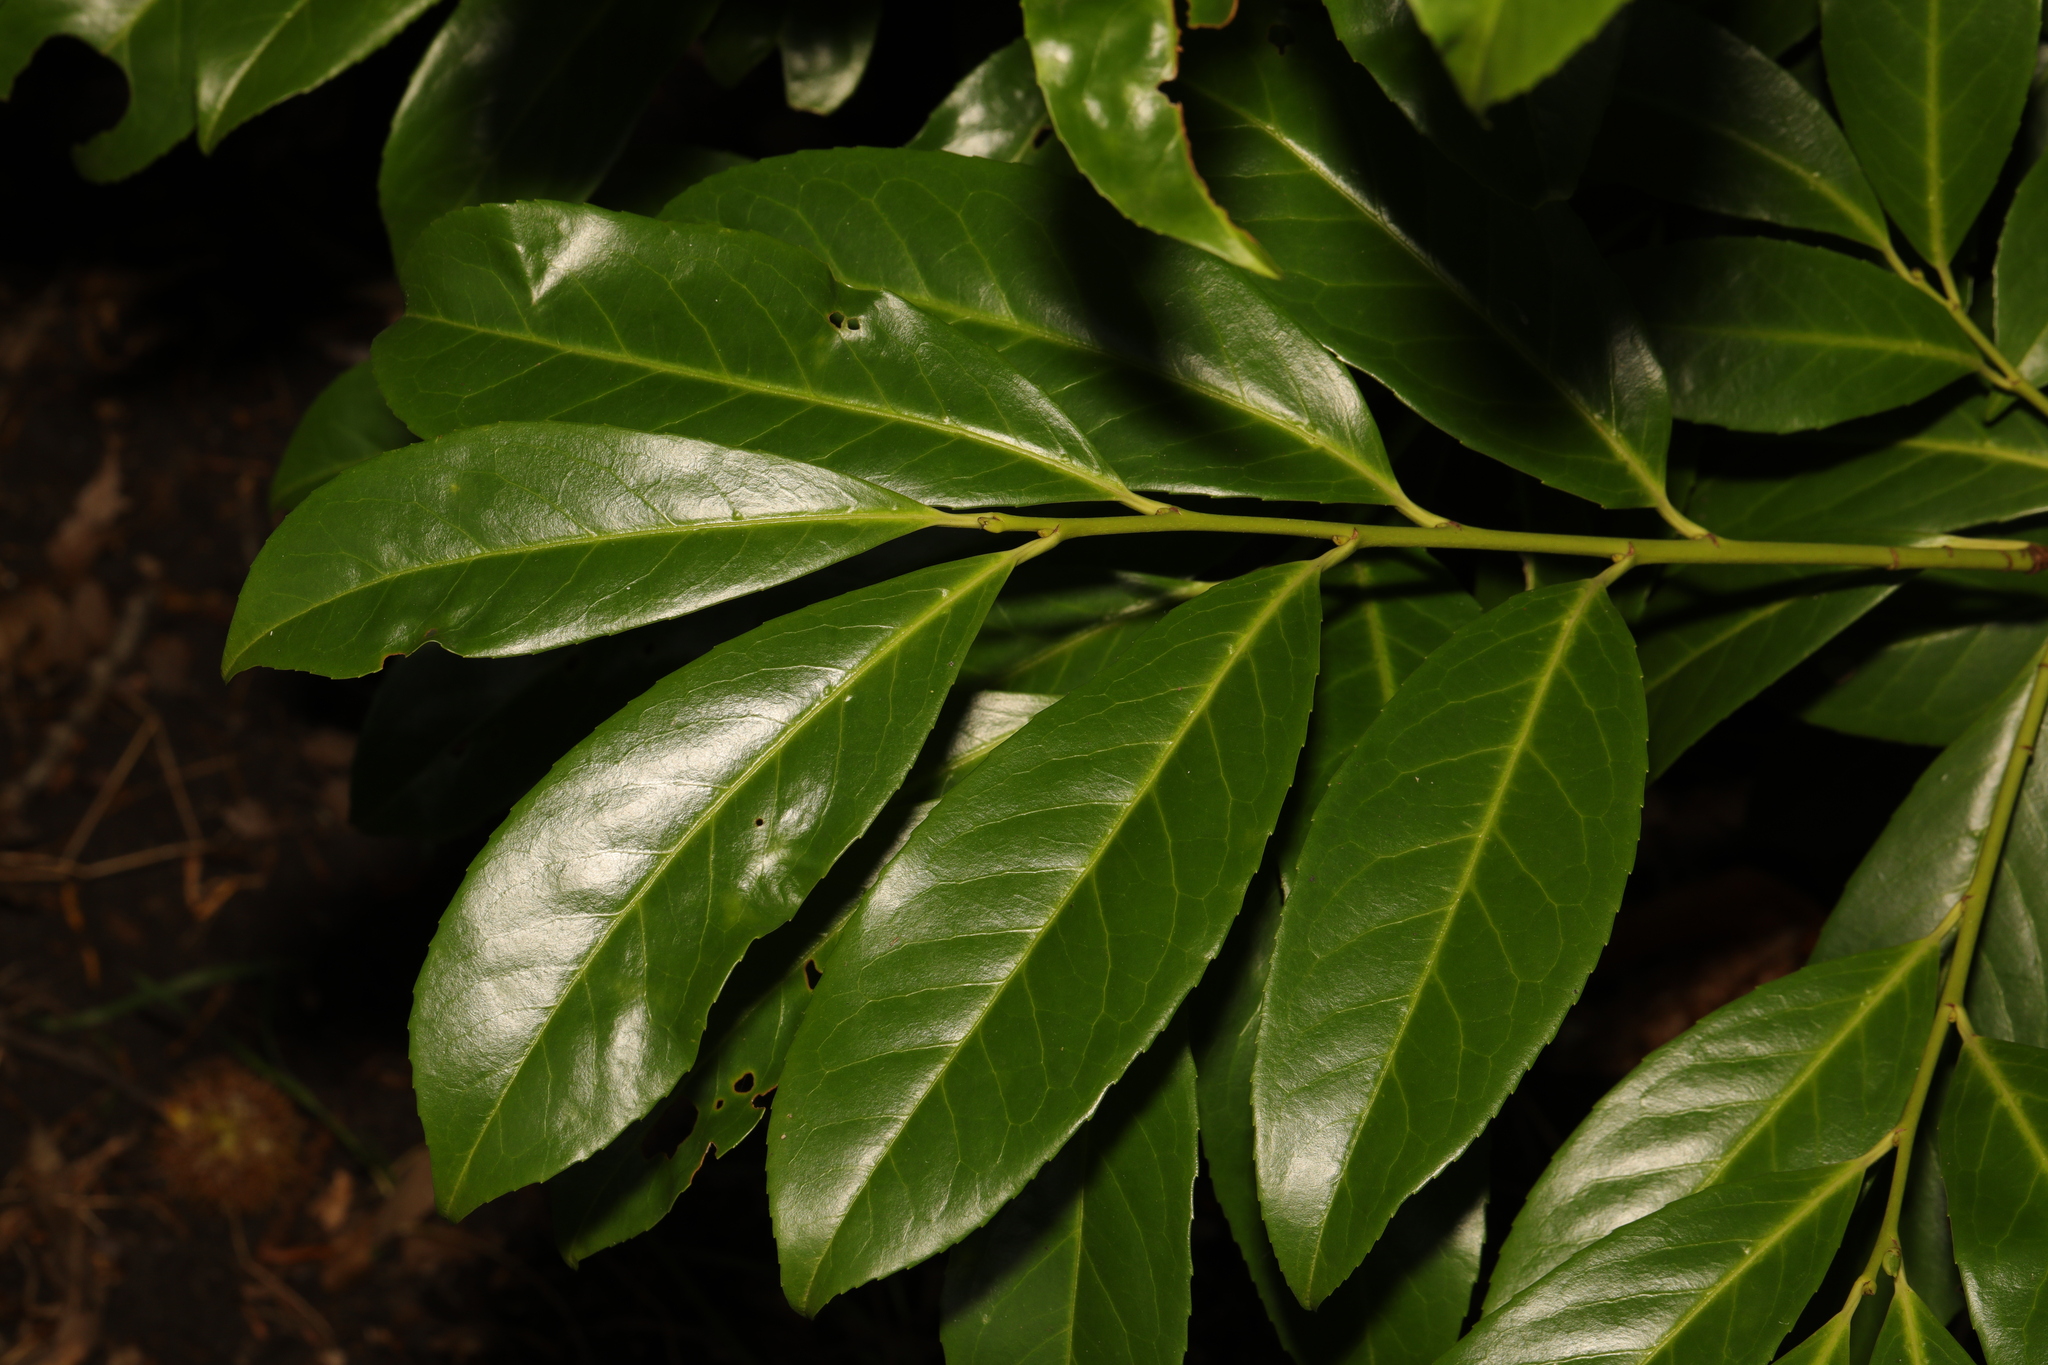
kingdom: Plantae
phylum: Tracheophyta
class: Magnoliopsida
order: Rosales
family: Rosaceae
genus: Prunus
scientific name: Prunus laurocerasus
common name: Cherry laurel
